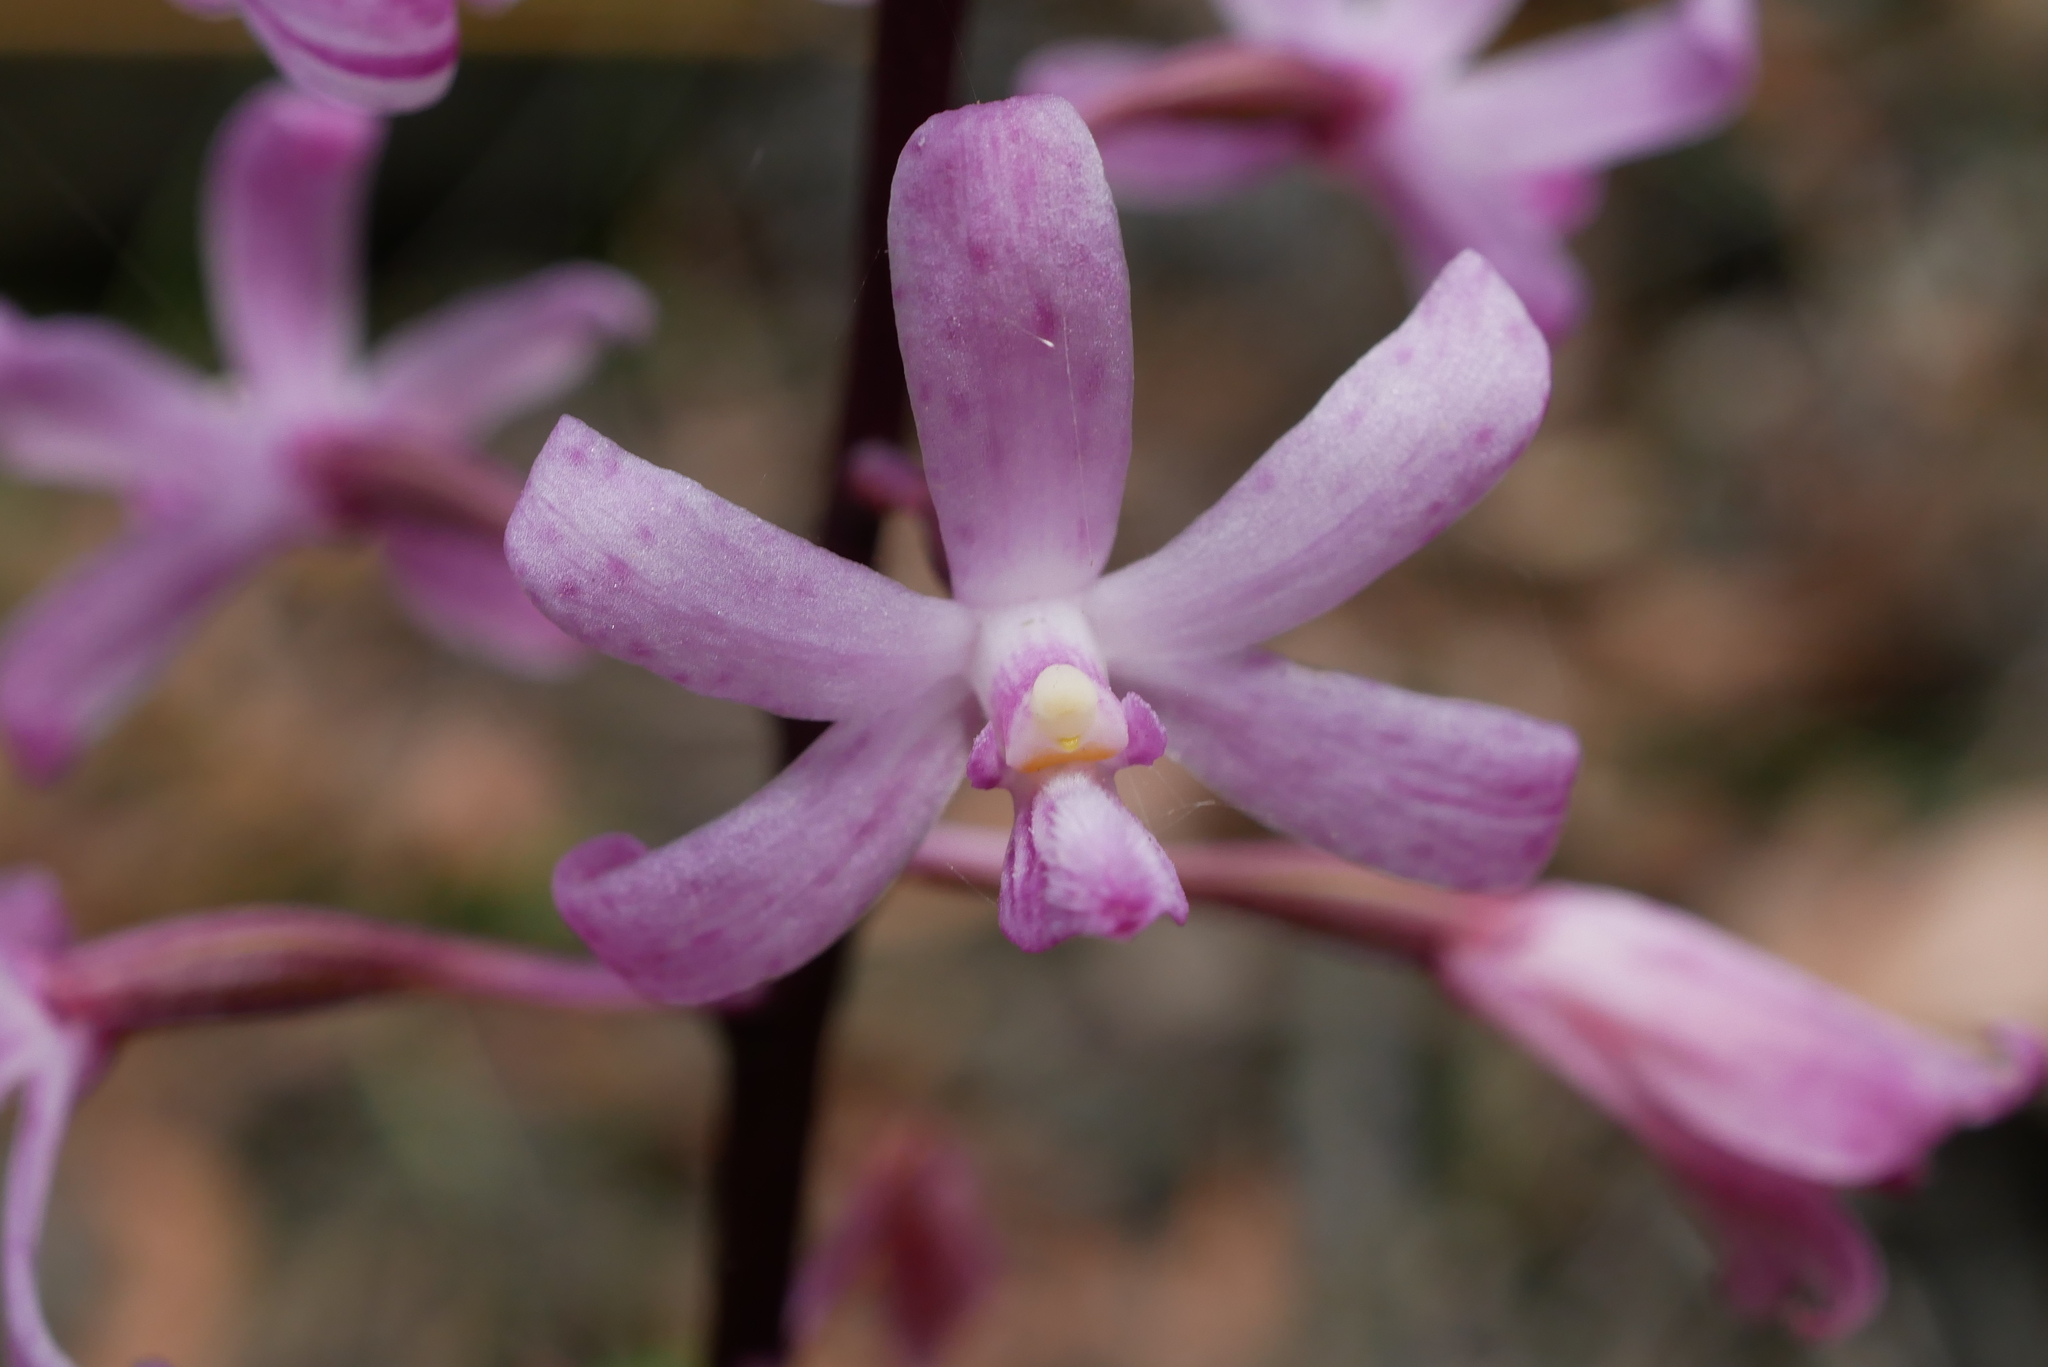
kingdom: Plantae
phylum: Tracheophyta
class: Liliopsida
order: Asparagales
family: Orchidaceae
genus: Dipodium
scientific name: Dipodium roseum
